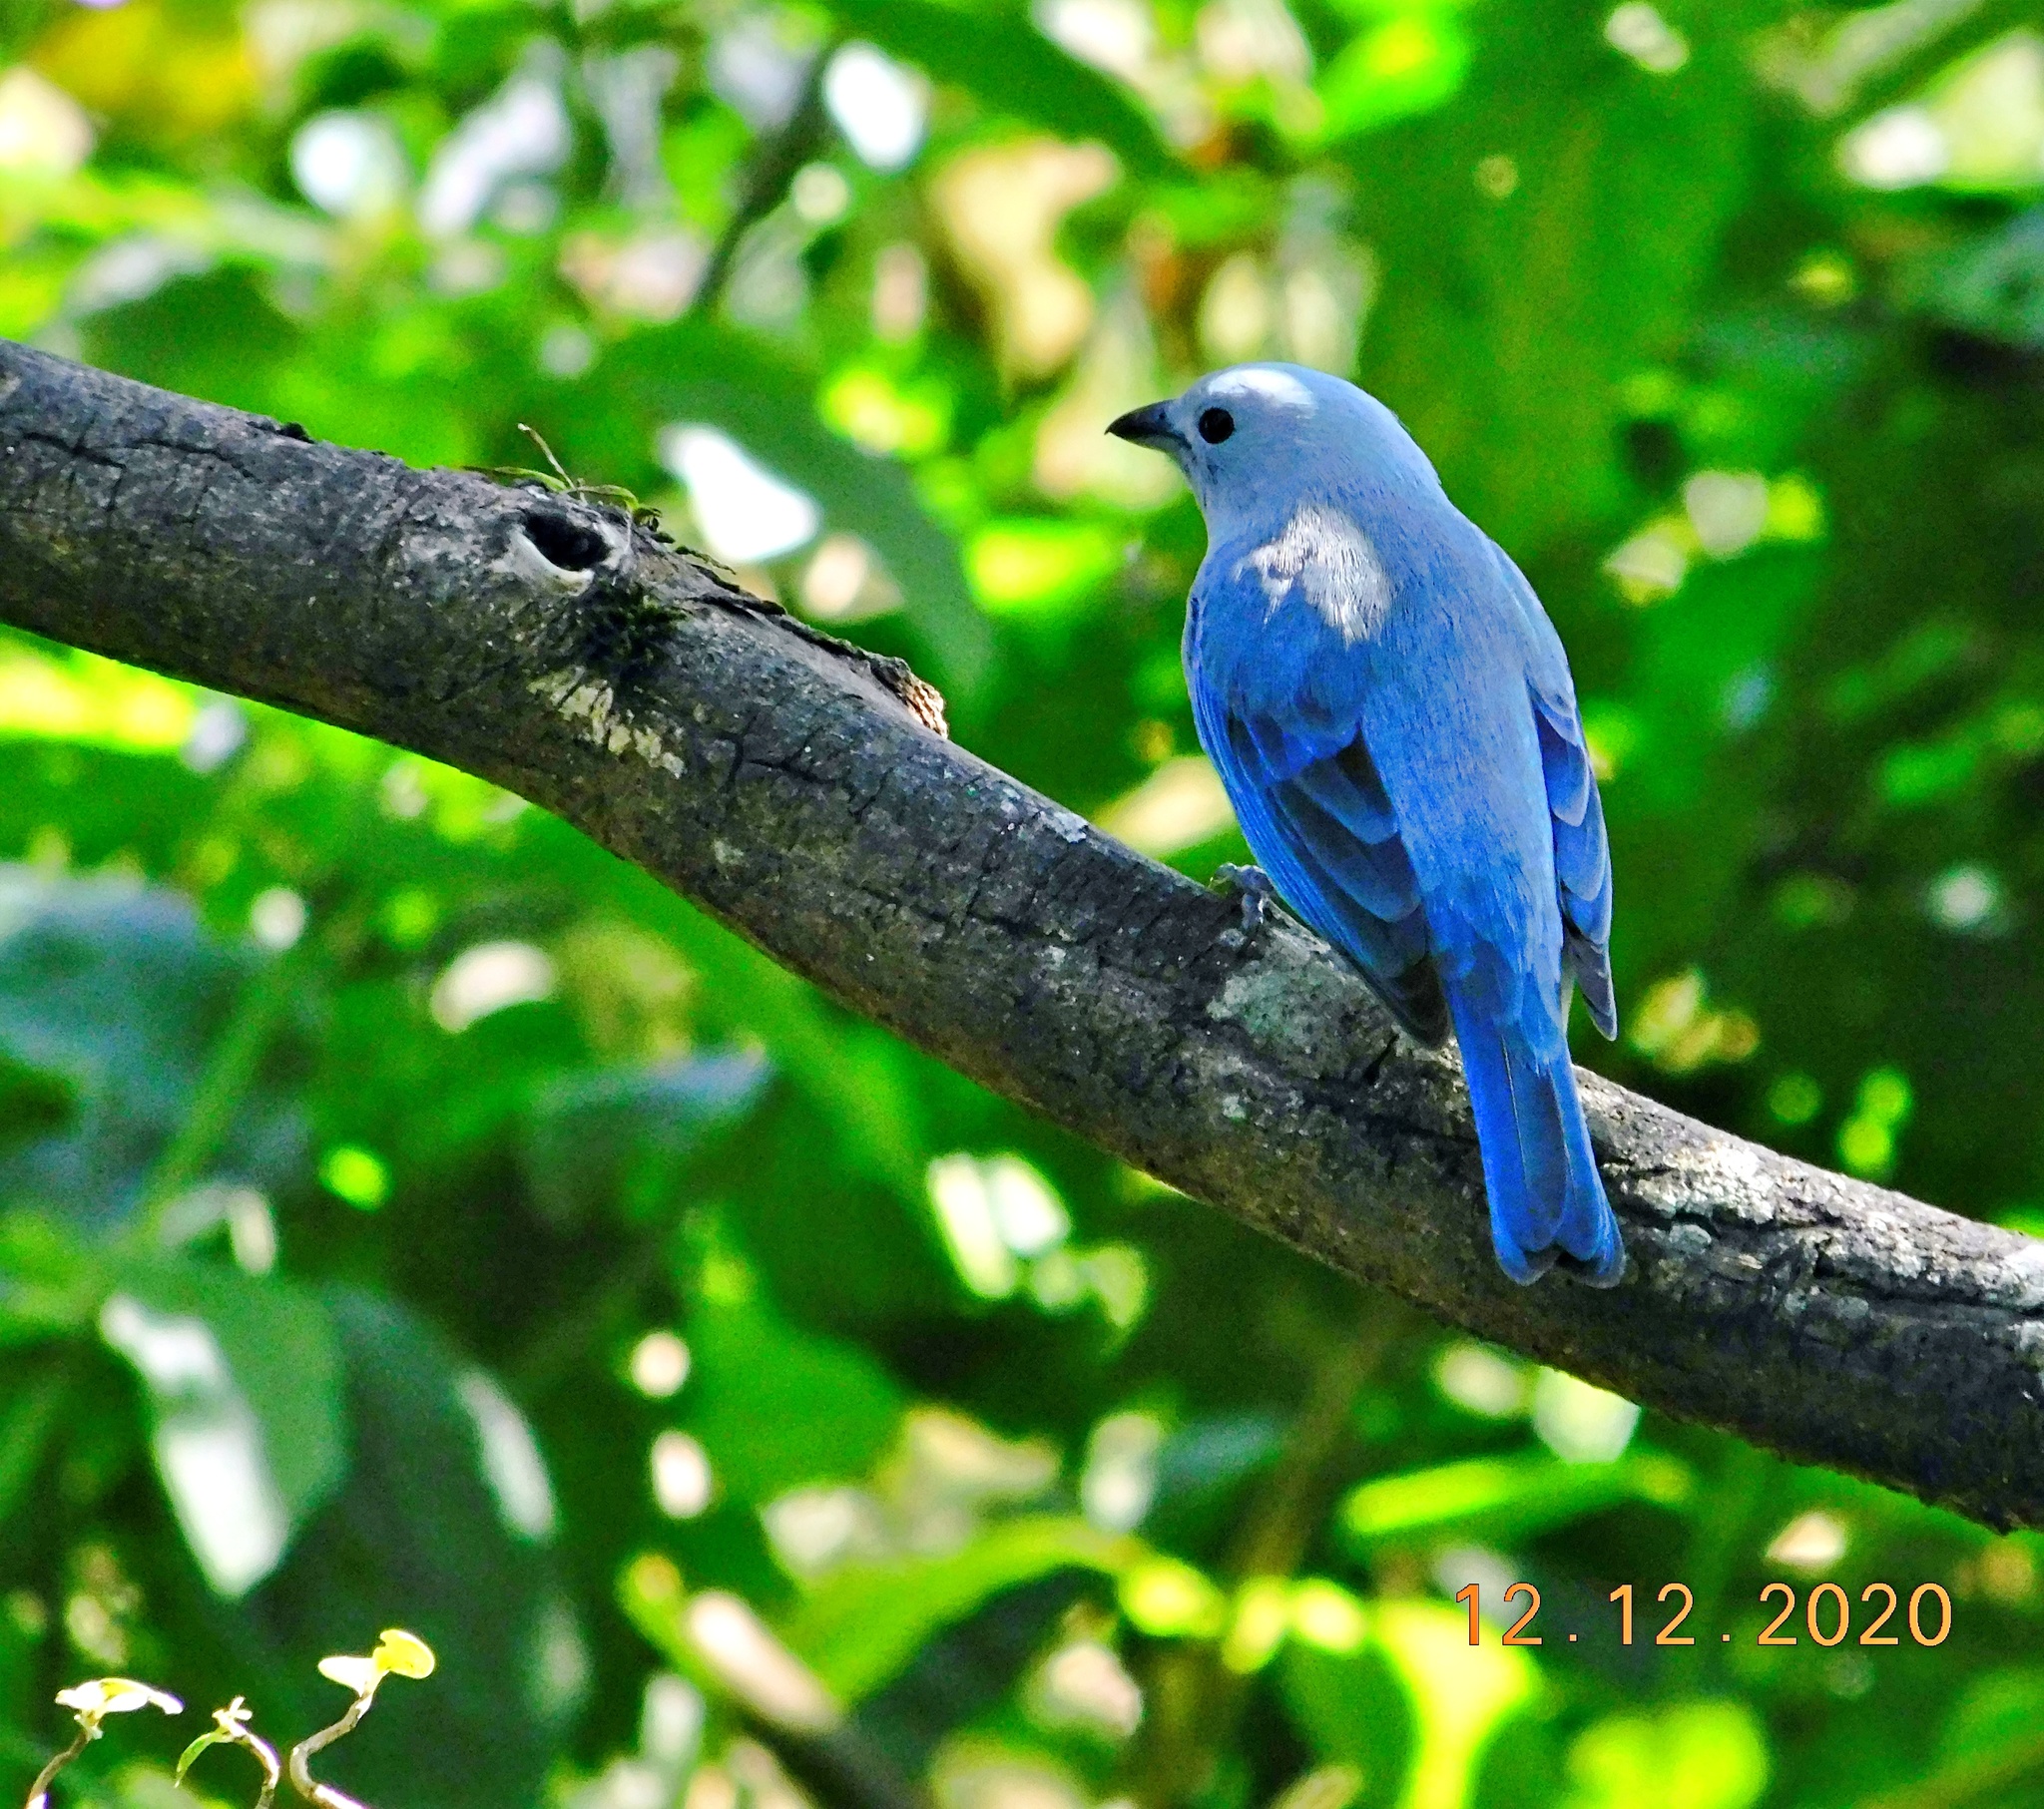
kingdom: Animalia
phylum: Chordata
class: Aves
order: Passeriformes
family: Thraupidae
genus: Thraupis
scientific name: Thraupis episcopus
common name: Blue-grey tanager
